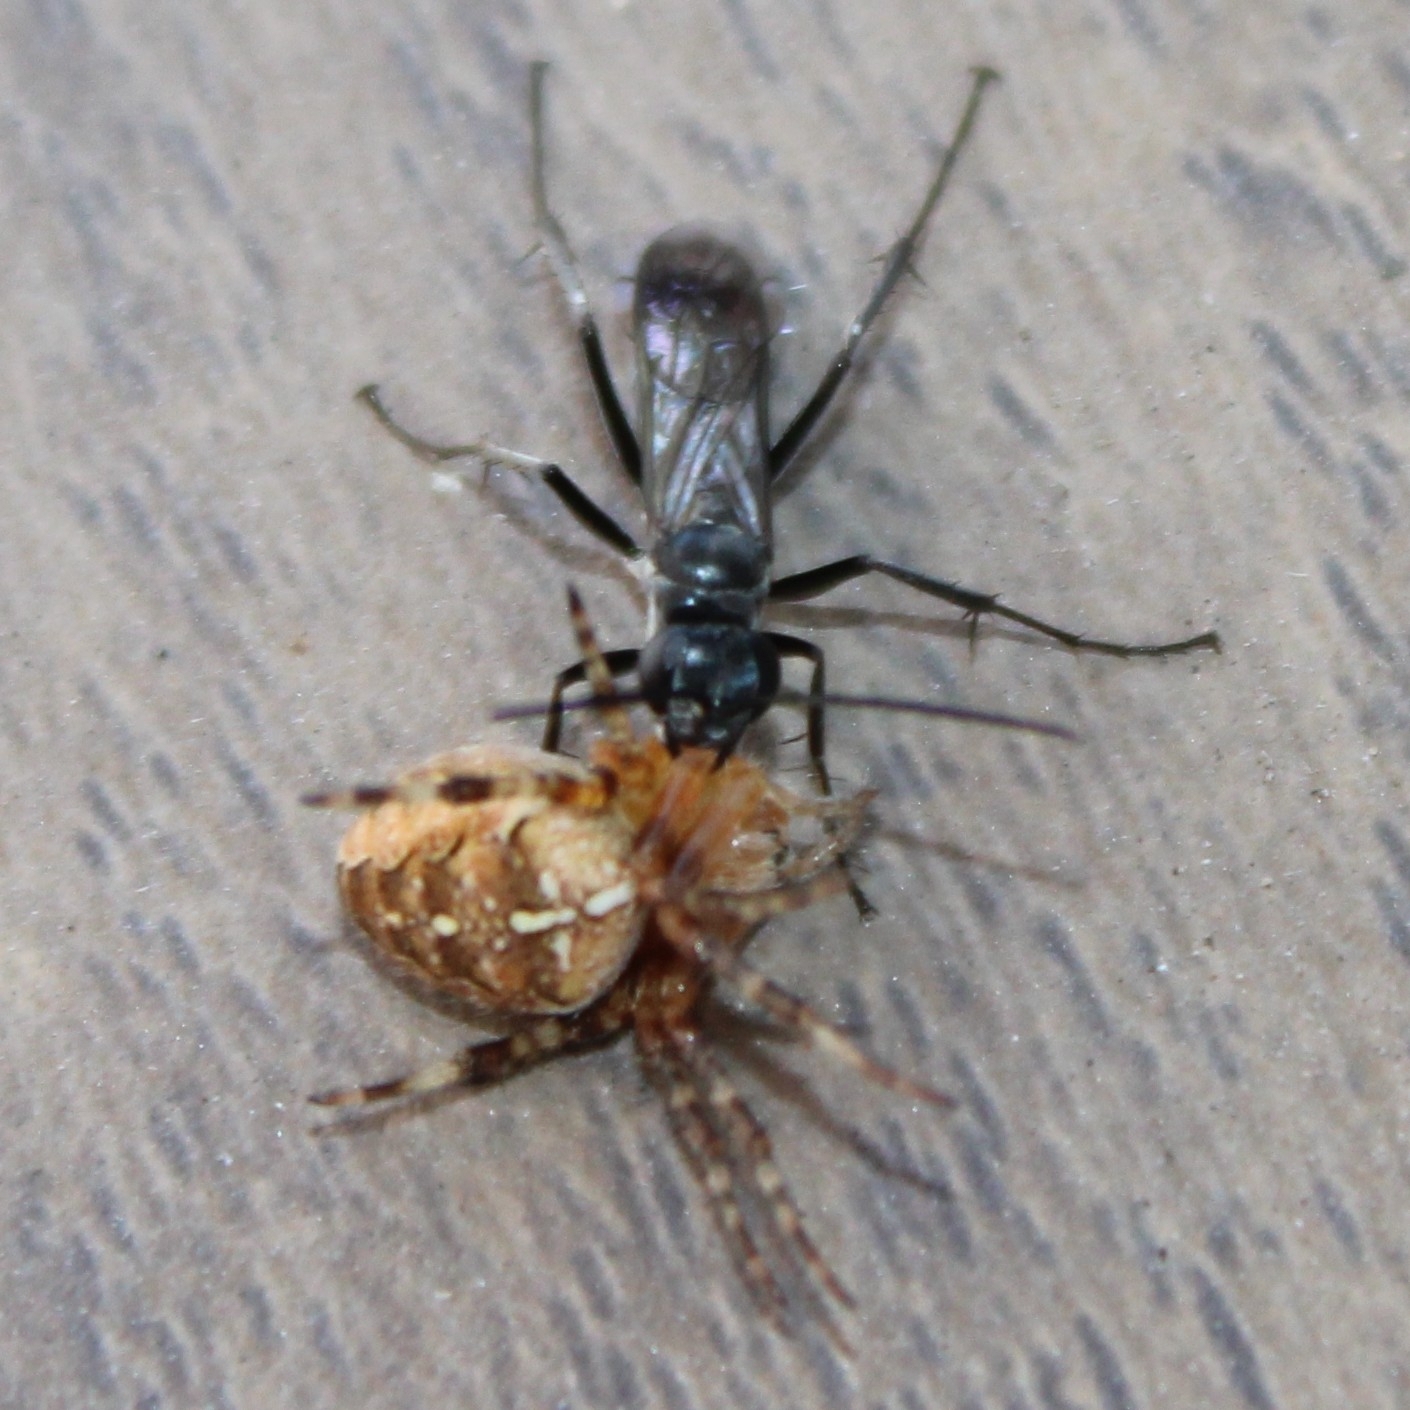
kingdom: Animalia
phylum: Arthropoda
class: Arachnida
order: Araneae
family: Araneidae
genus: Araneus
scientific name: Araneus diadematus
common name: Cross orbweaver
